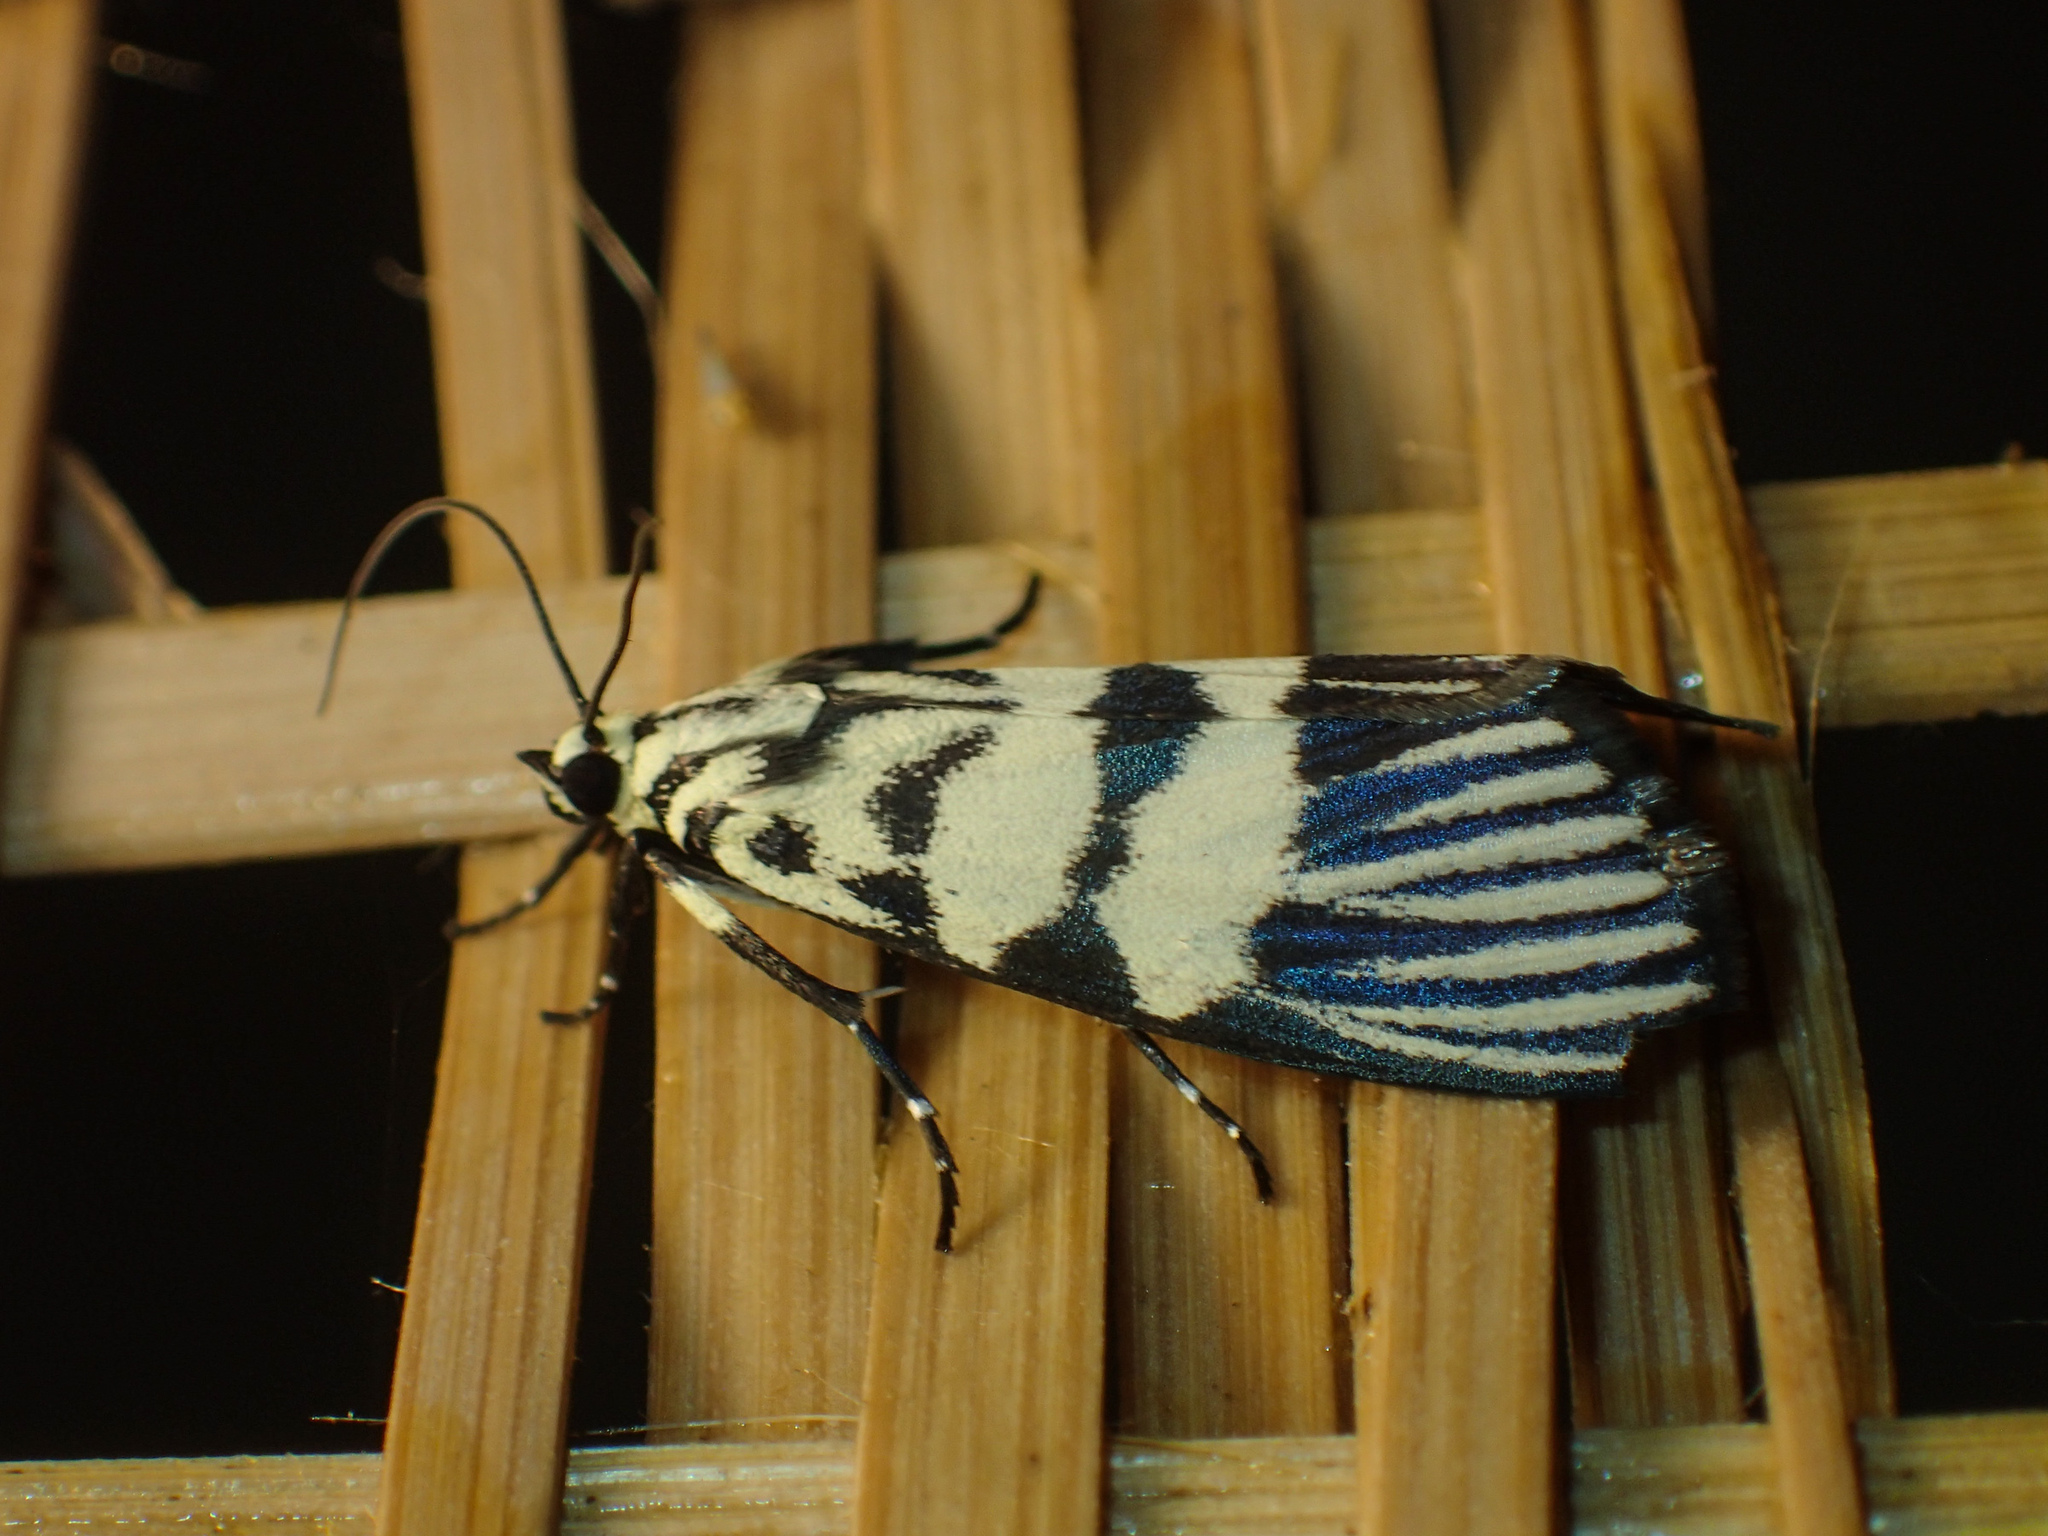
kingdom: Animalia
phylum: Arthropoda
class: Insecta
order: Lepidoptera
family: Crambidae
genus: Heortia
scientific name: Heortia vitessoides
